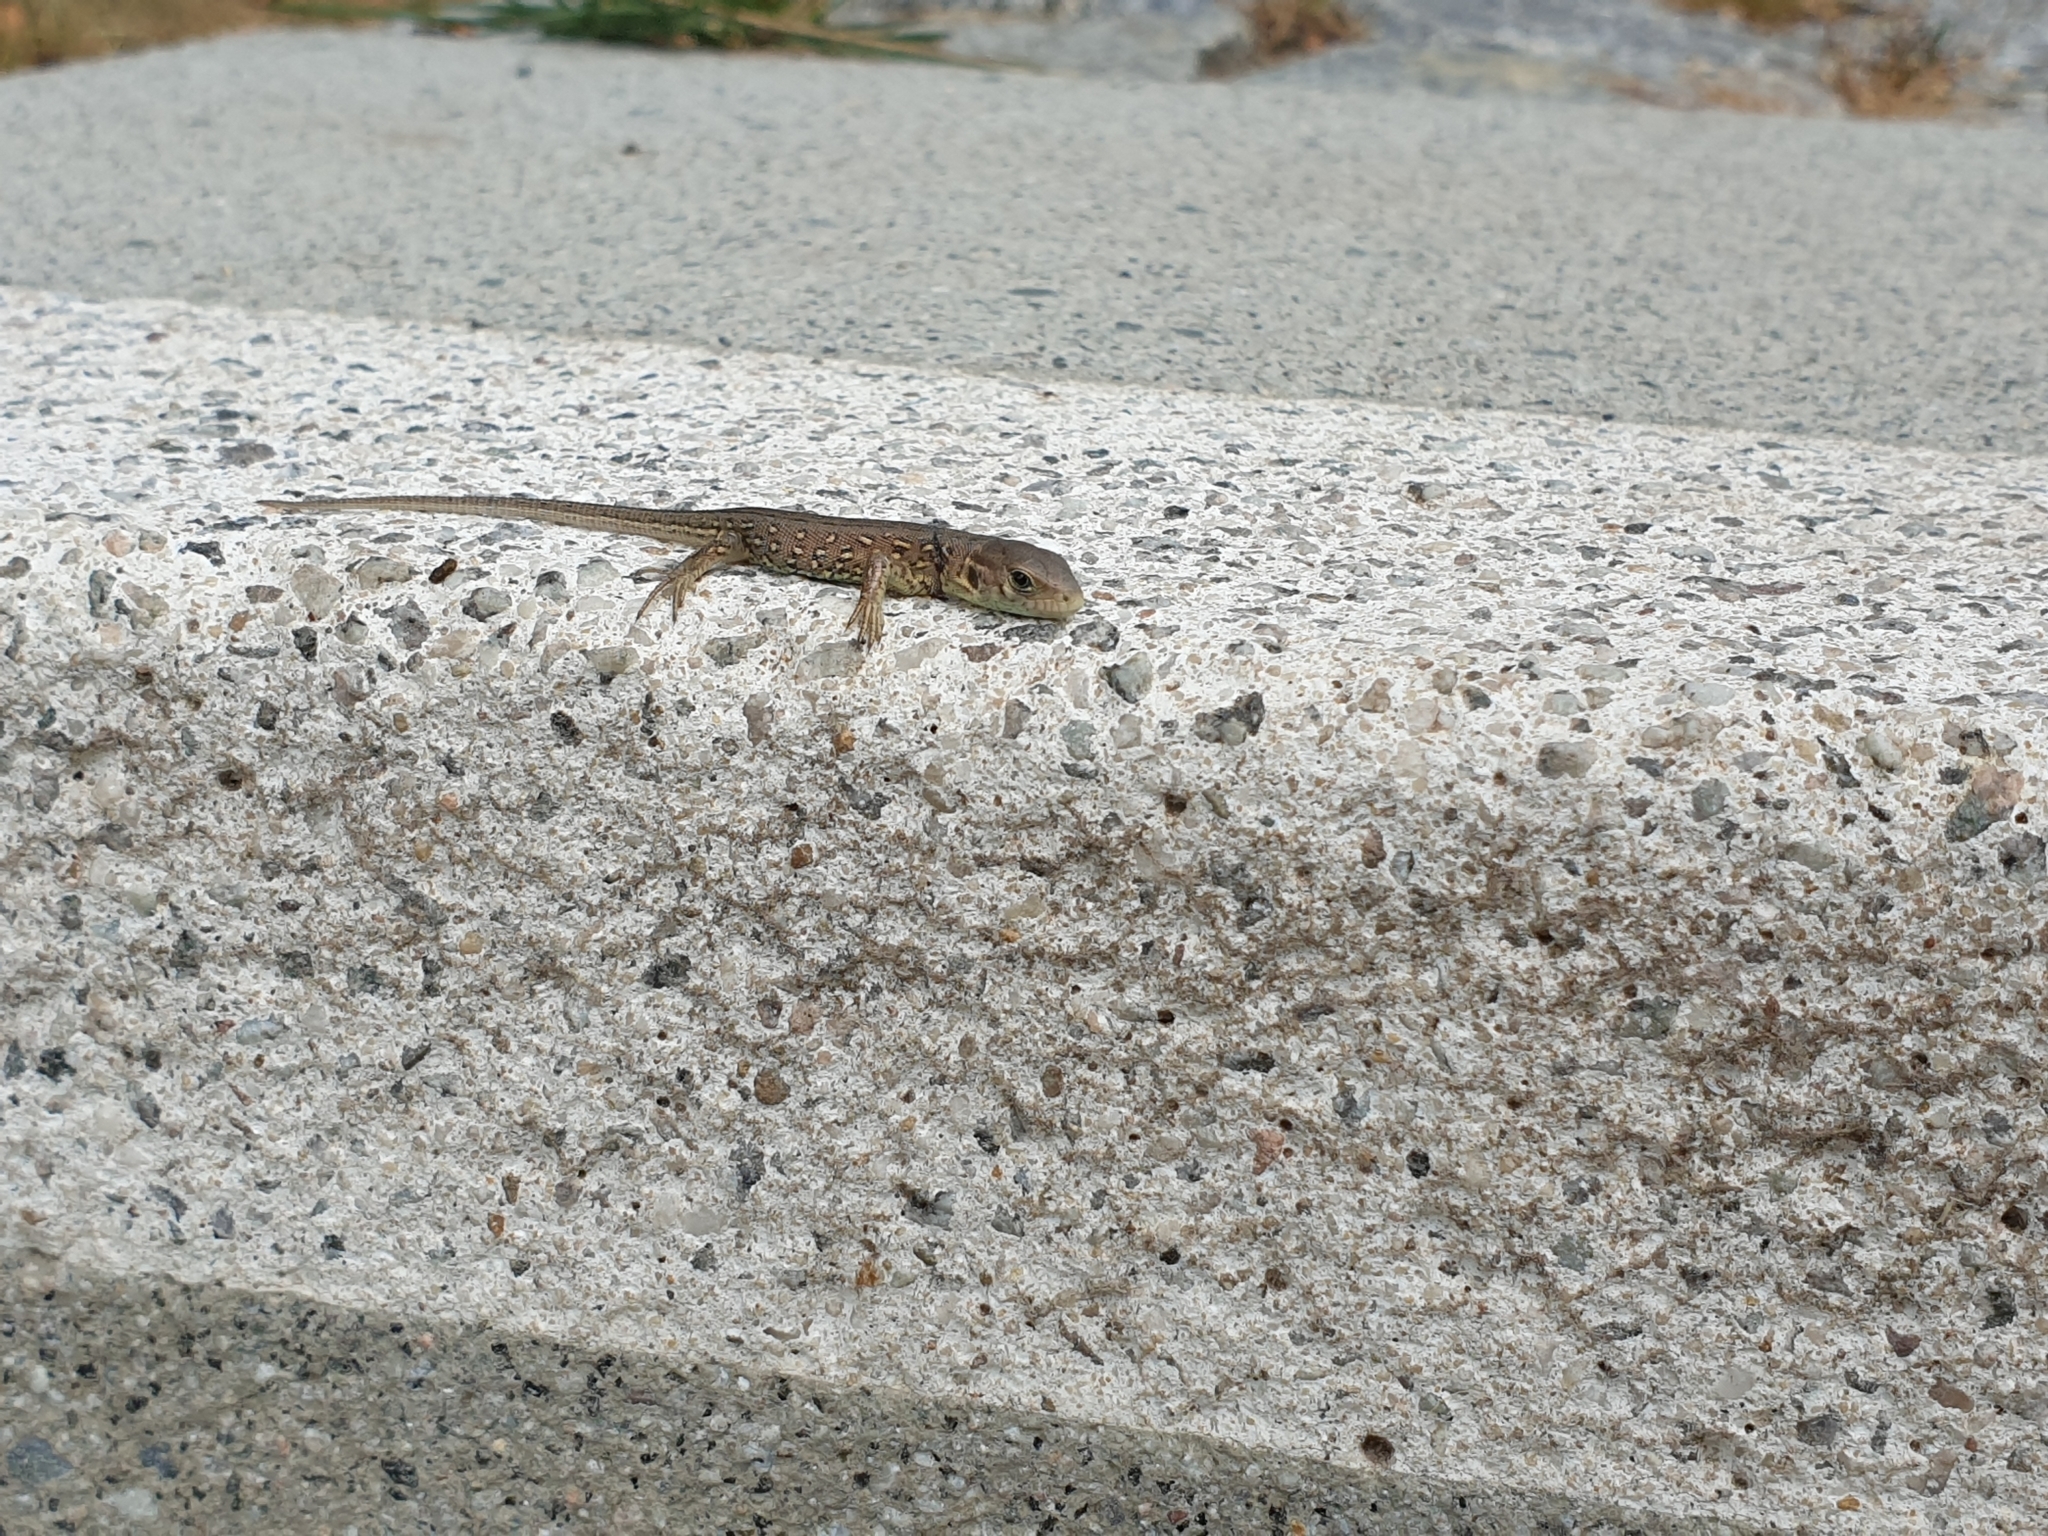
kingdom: Animalia
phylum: Chordata
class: Squamata
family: Lacertidae
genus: Lacerta
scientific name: Lacerta agilis
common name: Sand lizard
